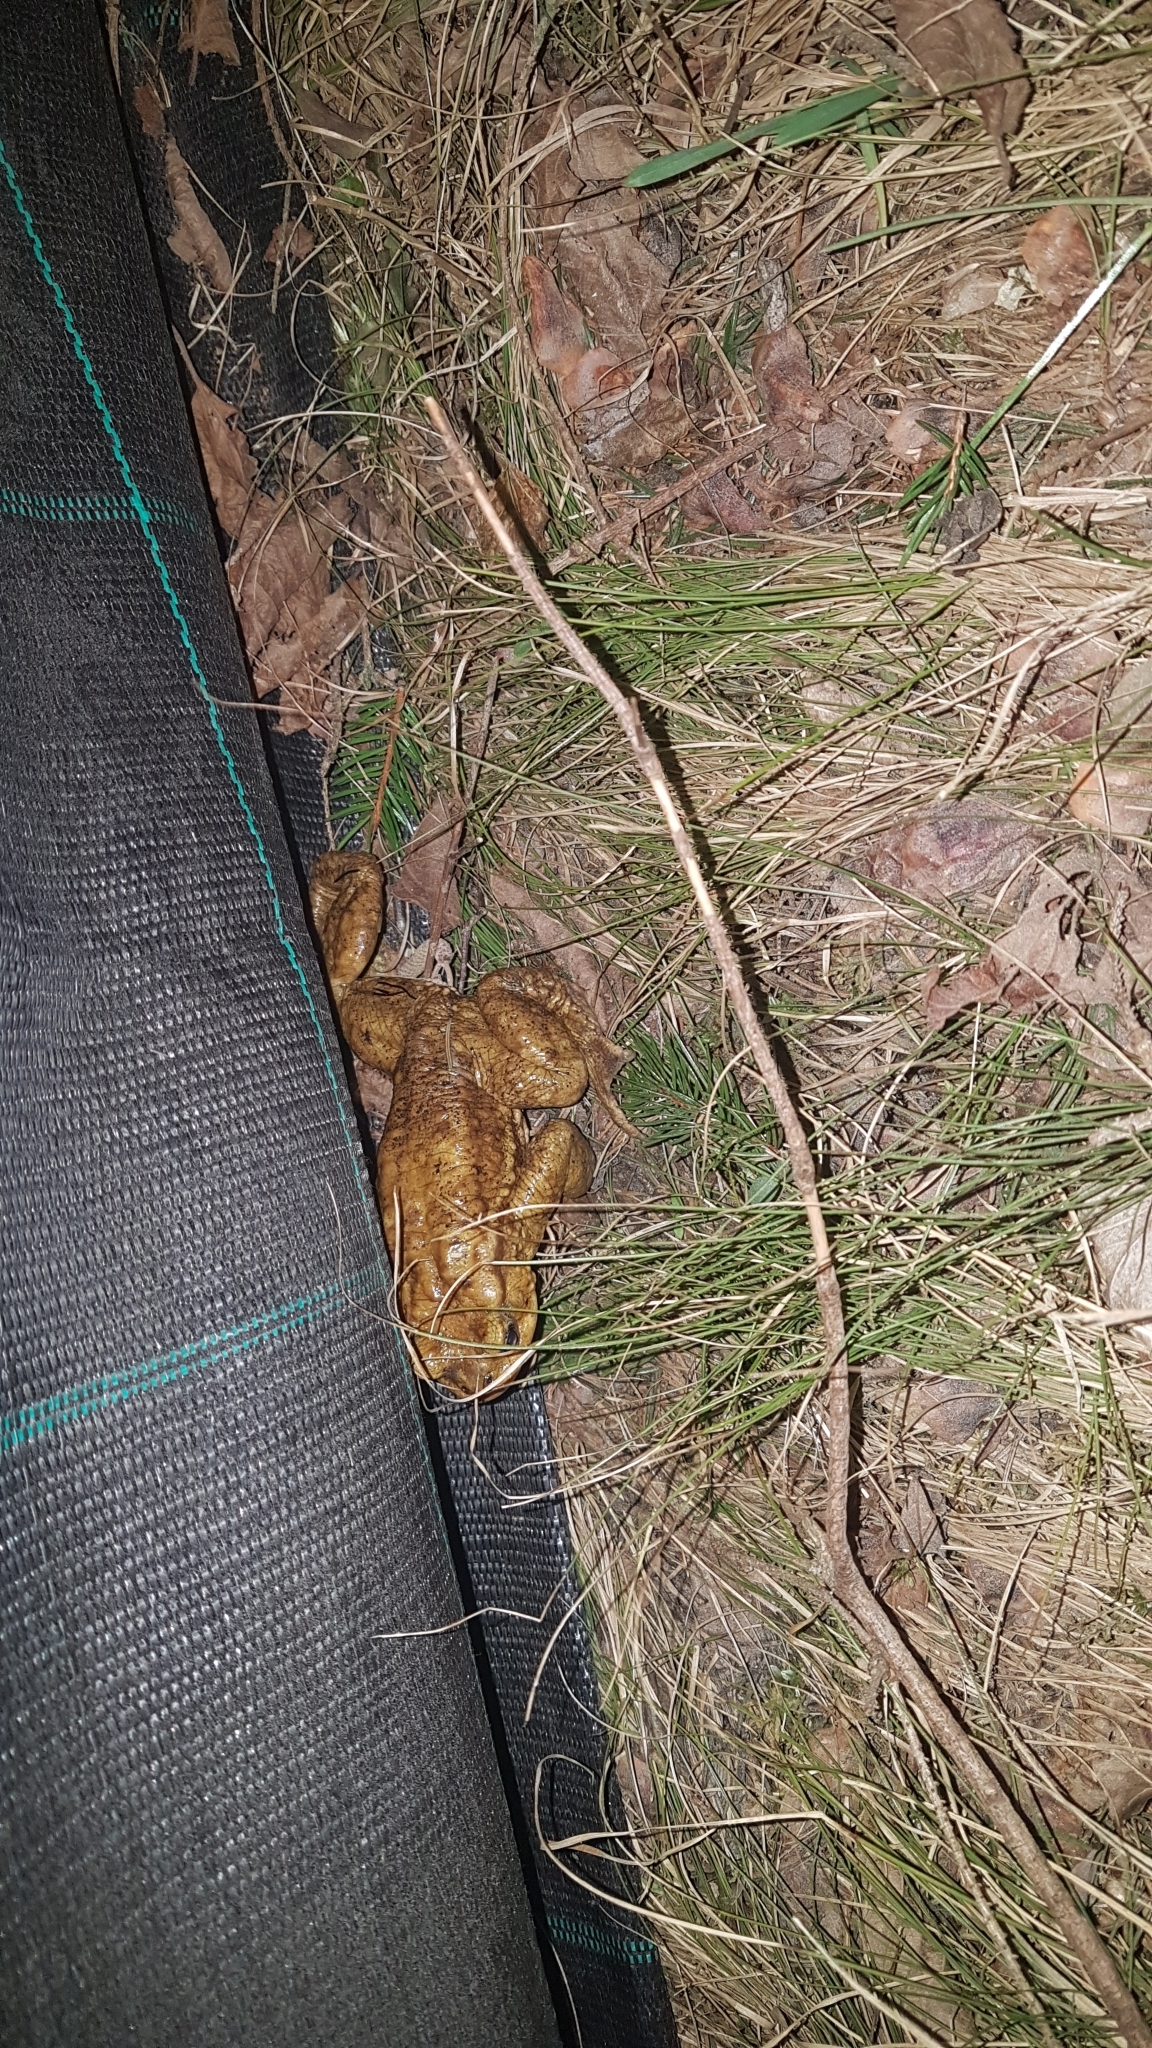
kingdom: Animalia
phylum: Chordata
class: Amphibia
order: Anura
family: Bufonidae
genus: Bufo
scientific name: Bufo bufo
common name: Common toad
